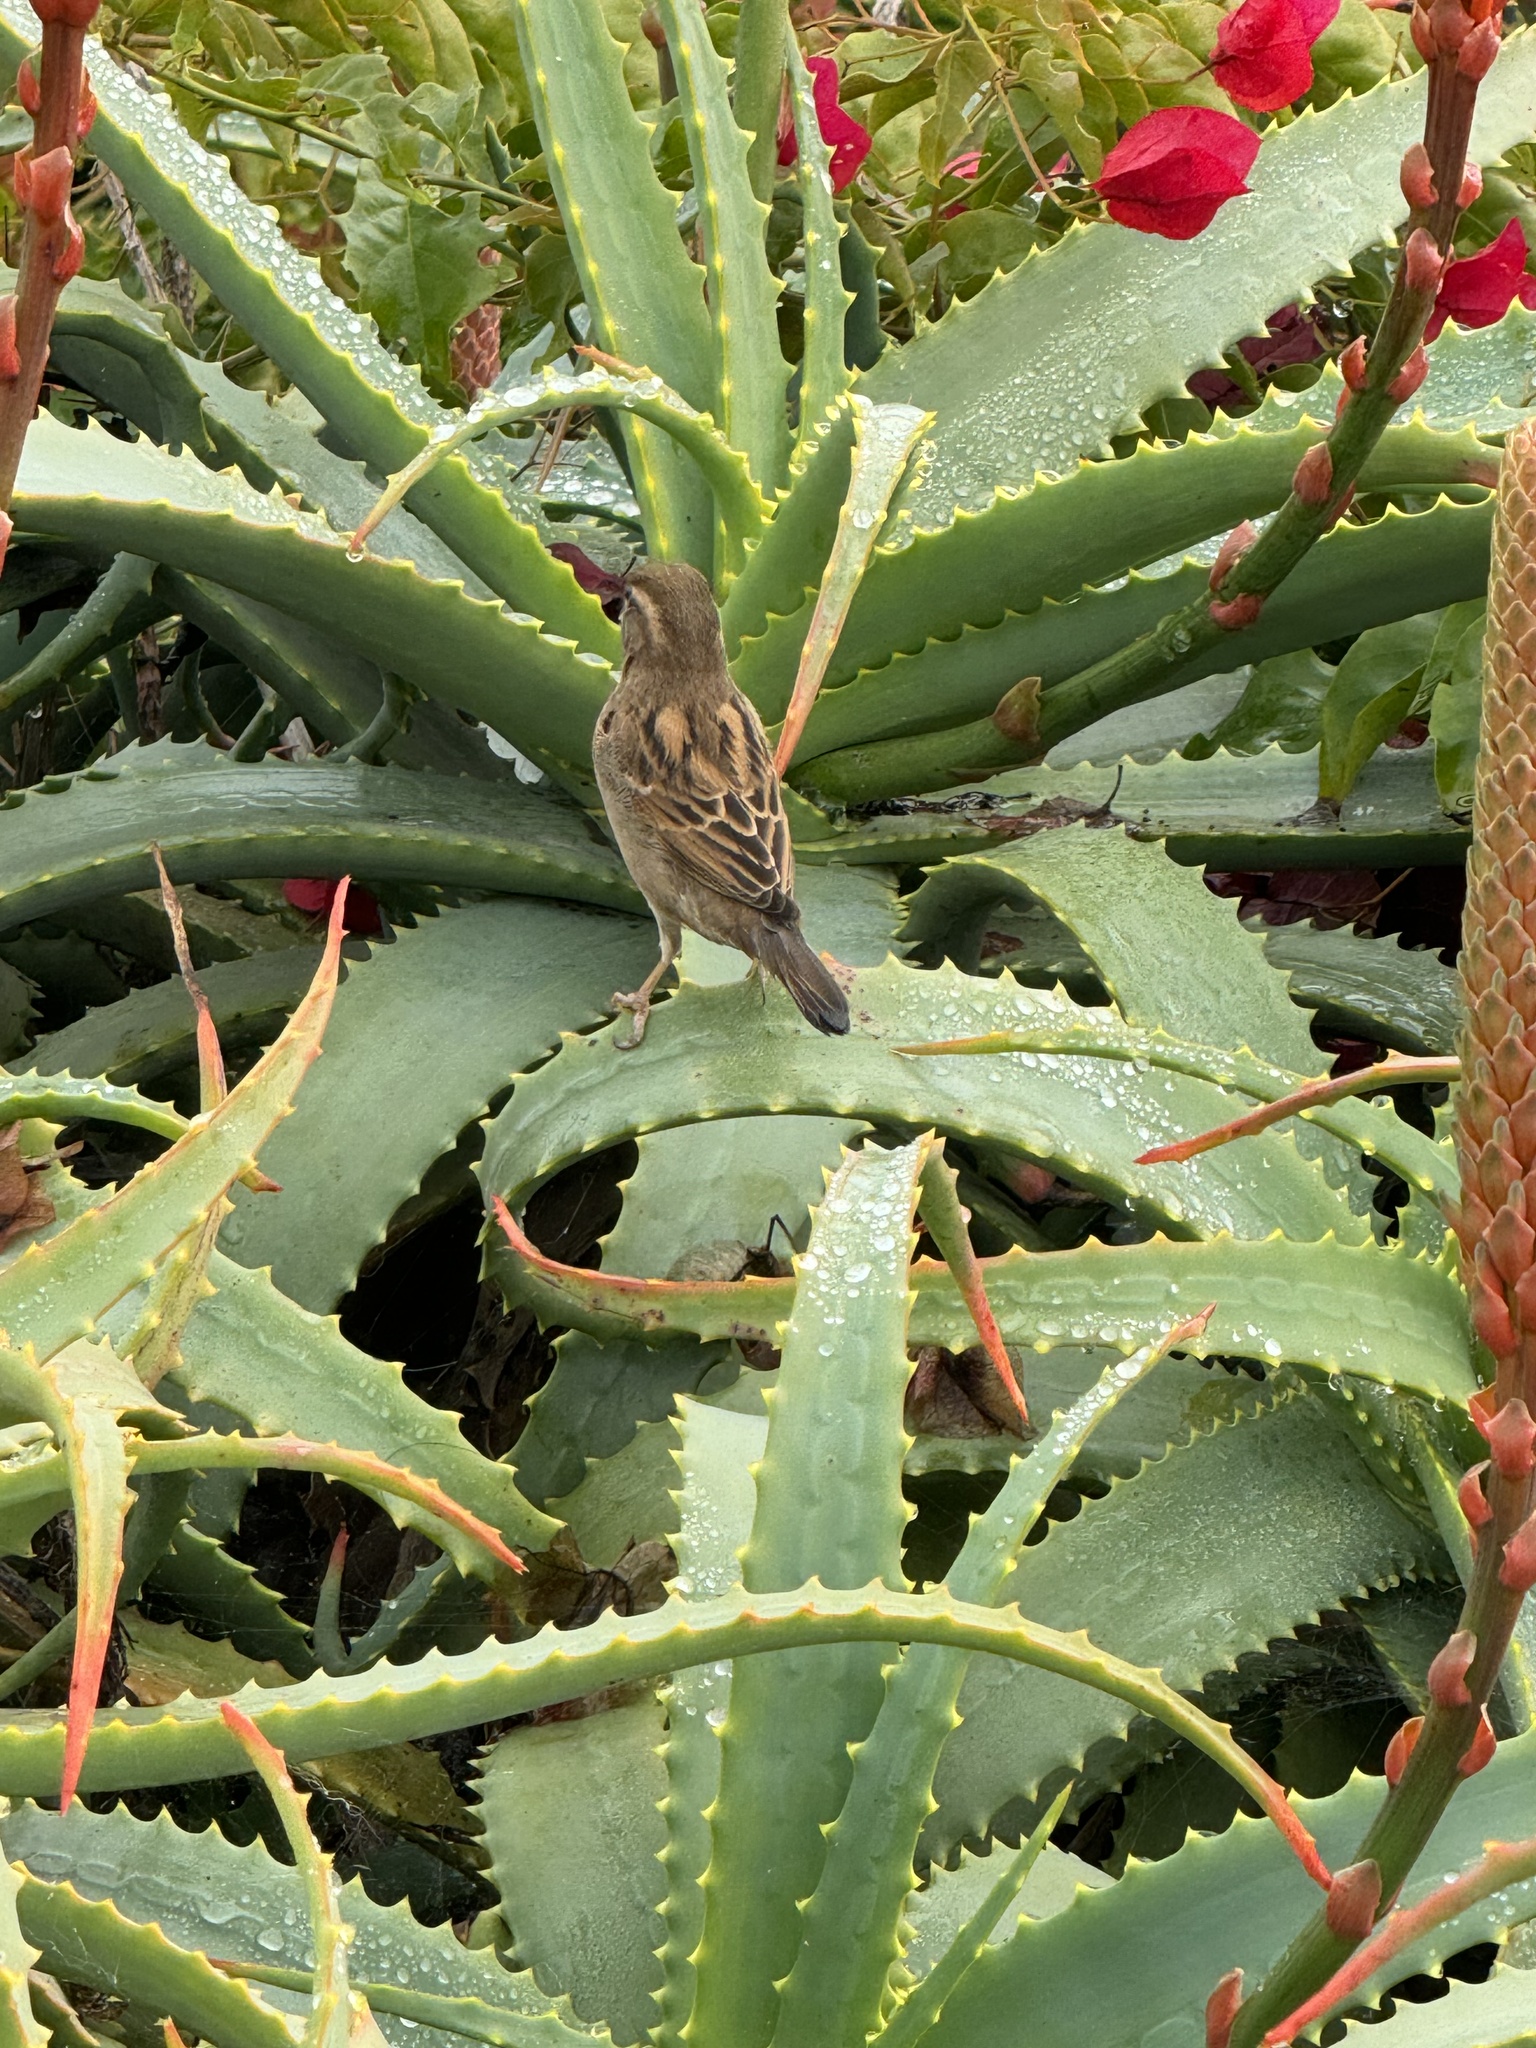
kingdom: Animalia
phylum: Chordata
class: Aves
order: Passeriformes
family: Passeridae
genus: Passer
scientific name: Passer domesticus
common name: House sparrow
